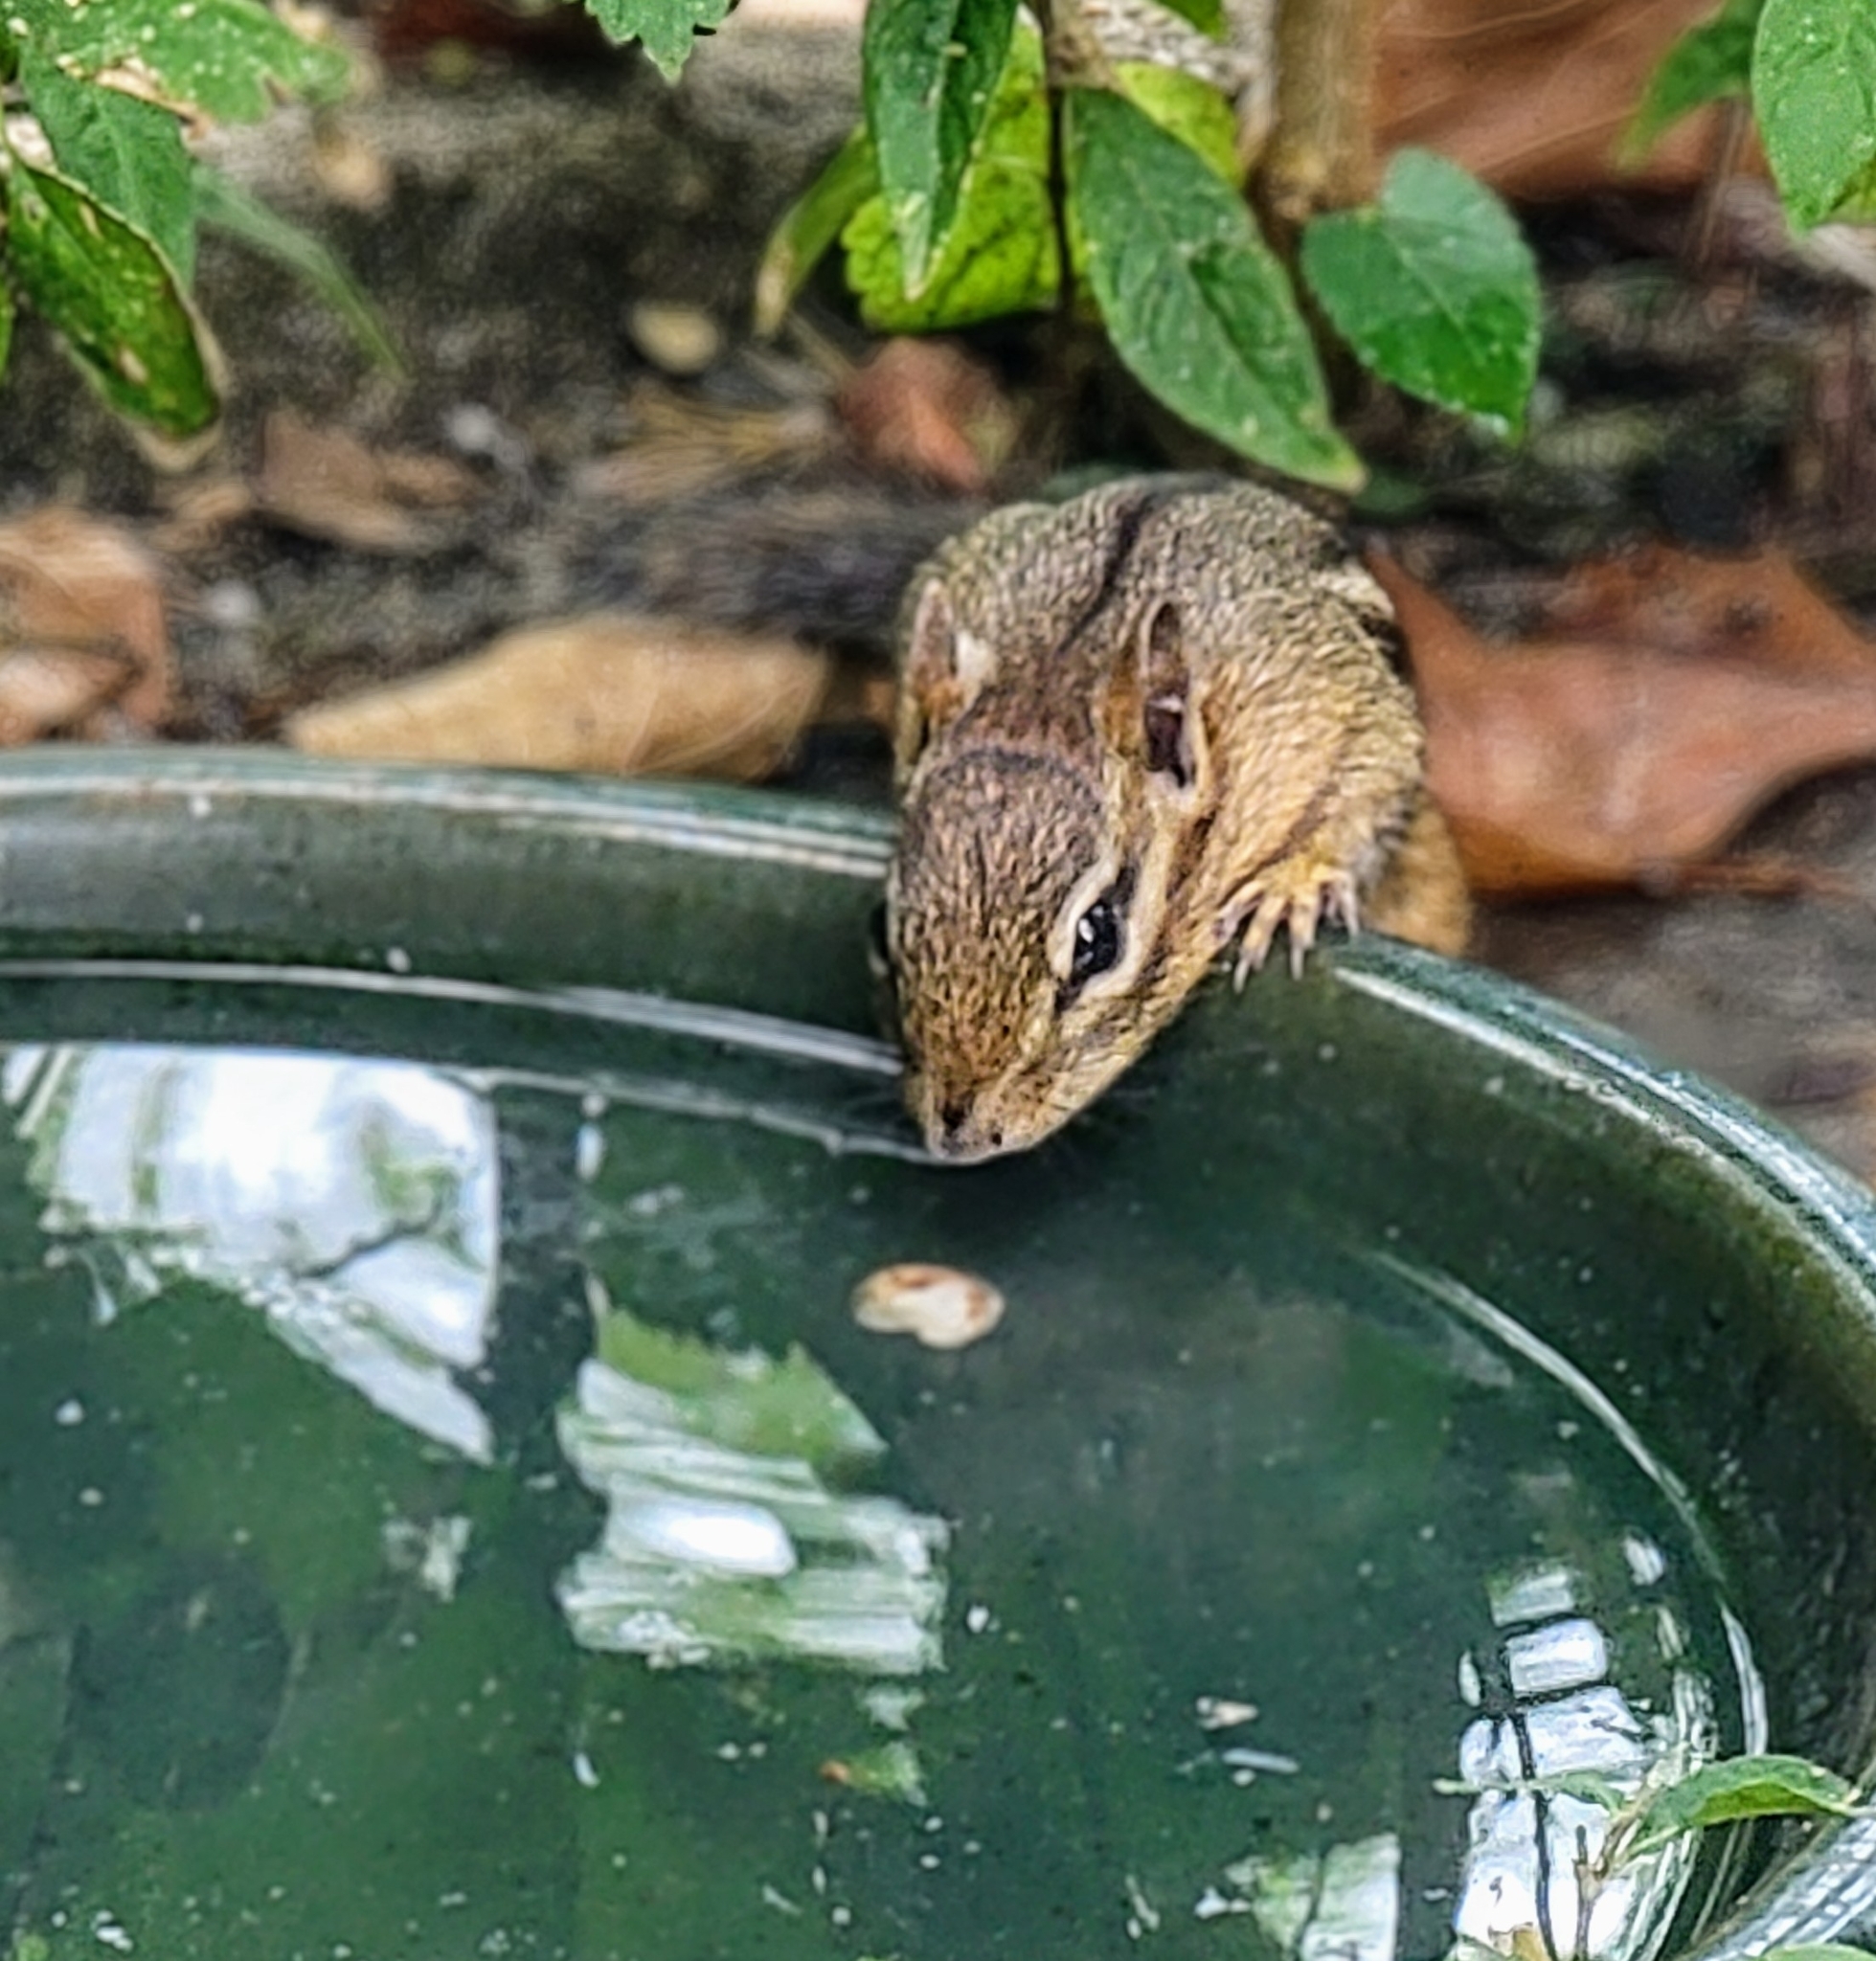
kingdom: Animalia
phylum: Chordata
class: Mammalia
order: Rodentia
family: Sciuridae
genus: Tamias
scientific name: Tamias striatus
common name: Eastern chipmunk
